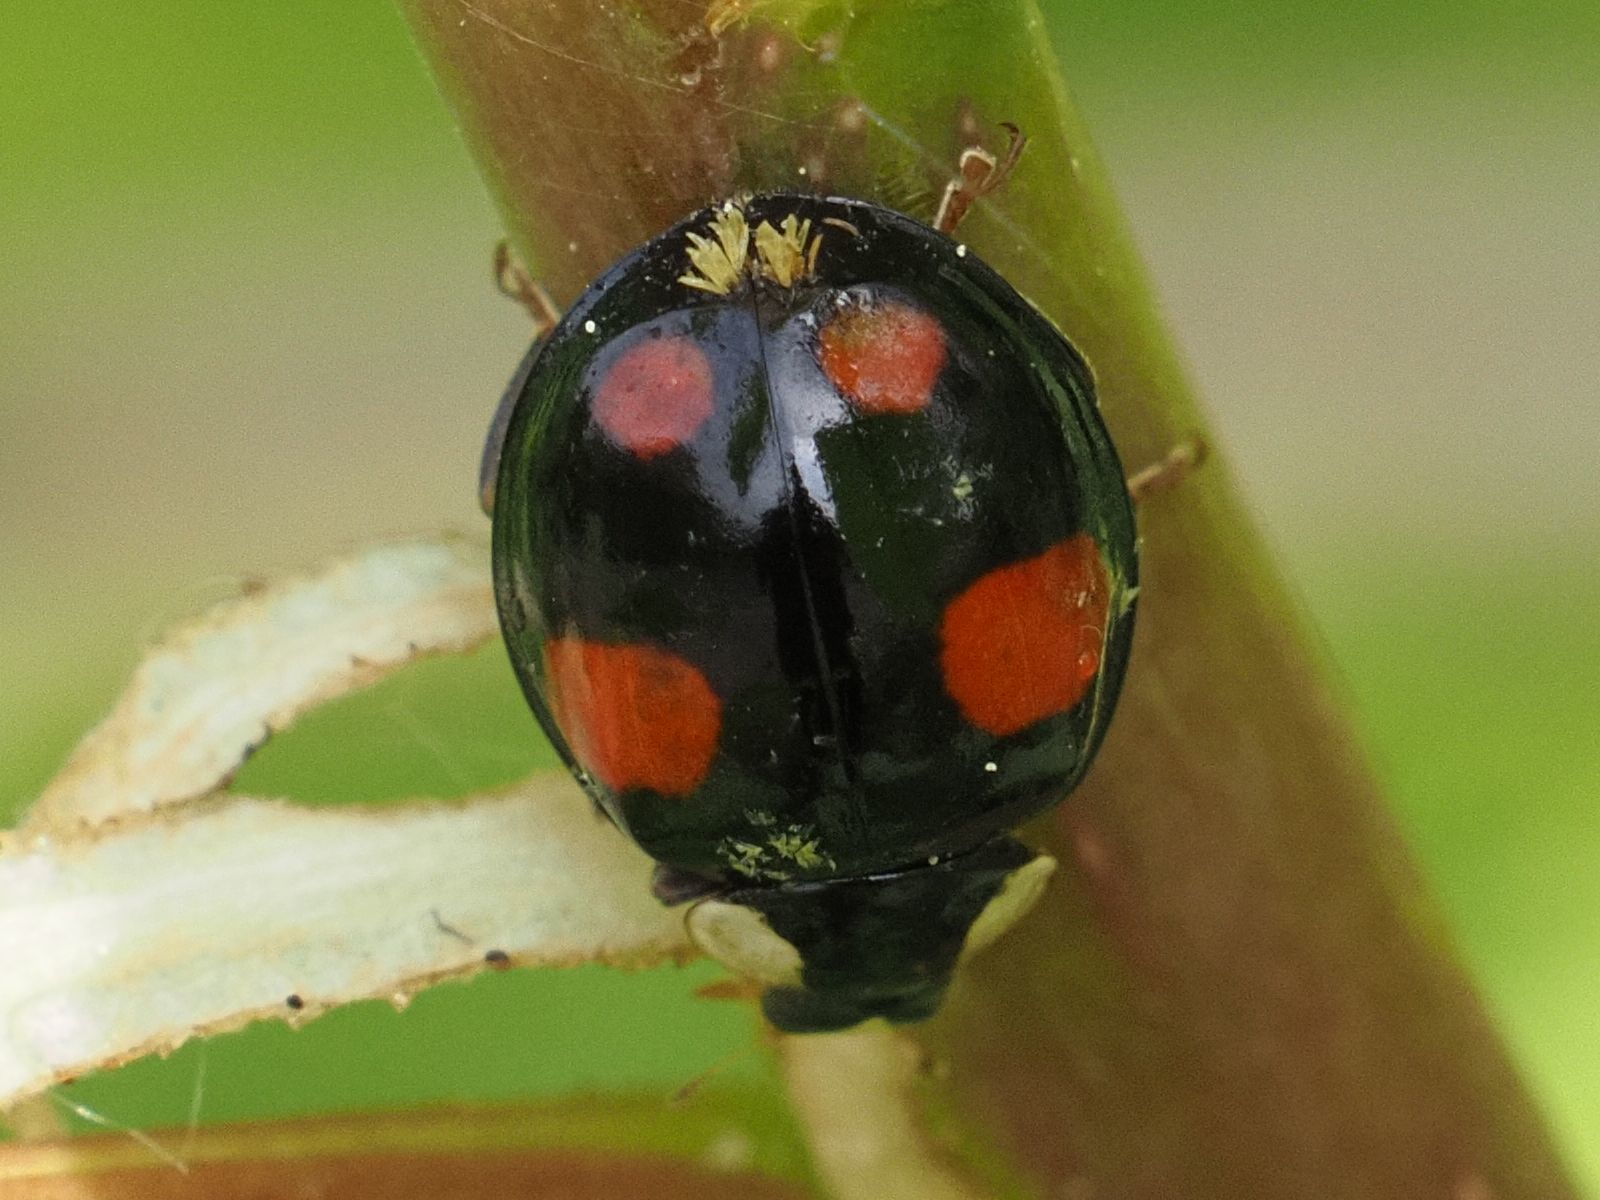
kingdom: Fungi
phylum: Ascomycota
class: Laboulbeniomycetes
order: Laboulbeniales
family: Laboulbeniaceae
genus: Hesperomyces
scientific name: Hesperomyces harmoniae
